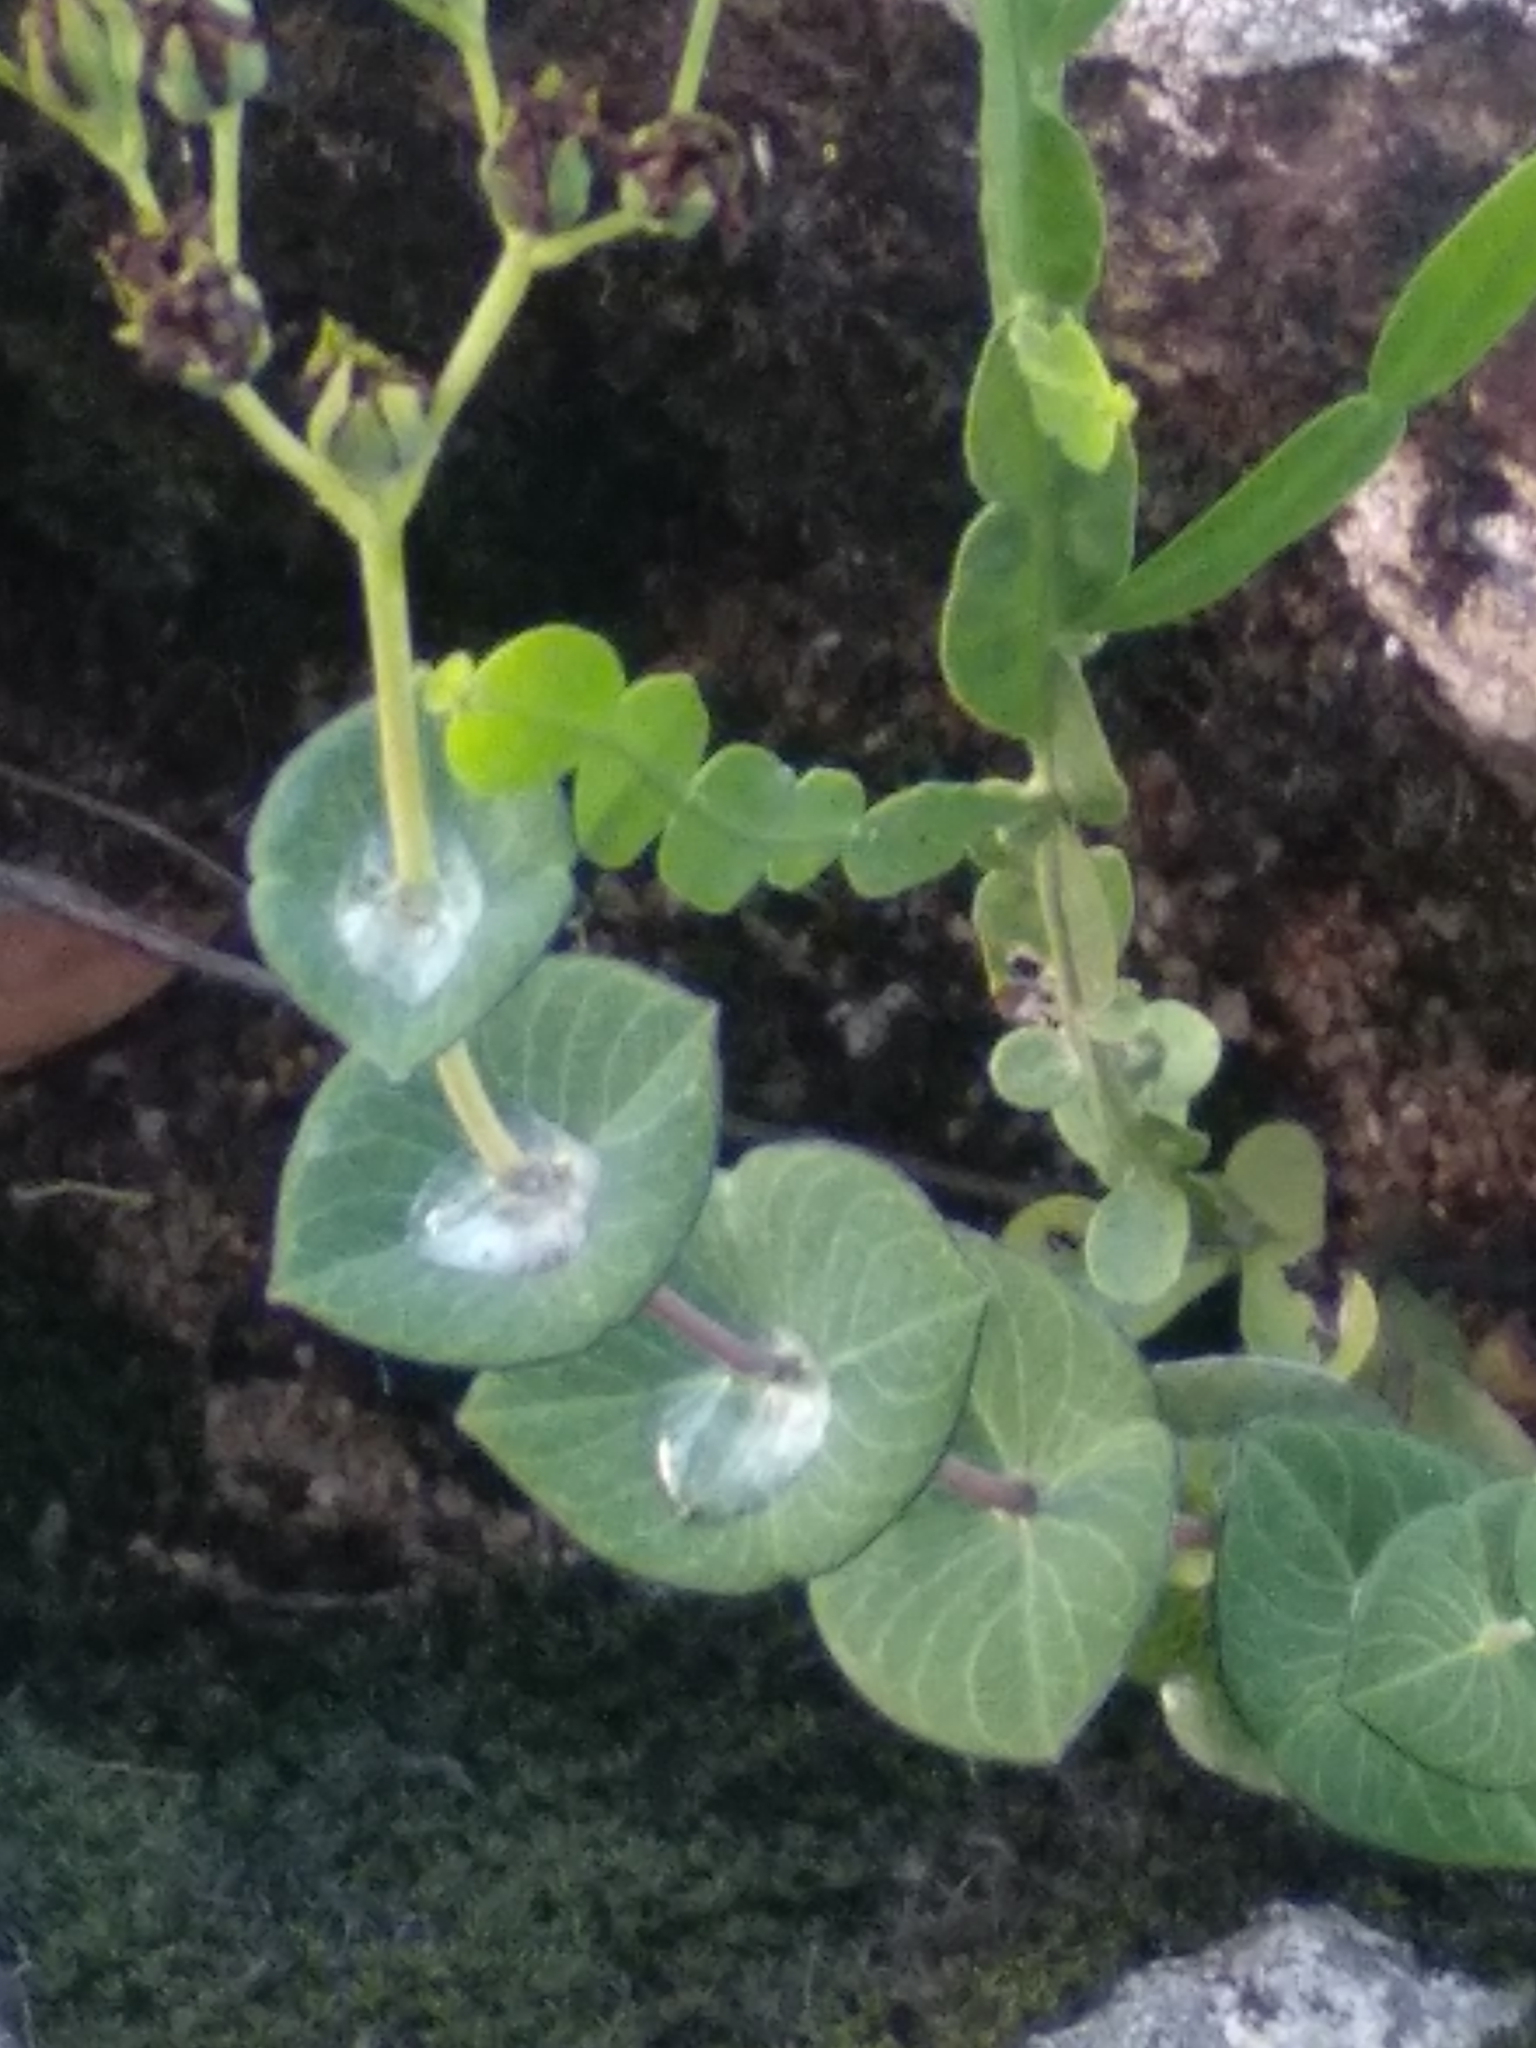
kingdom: Plantae
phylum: Tracheophyta
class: Magnoliopsida
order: Malpighiales
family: Hypericaceae
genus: Hypericum
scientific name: Hypericum connatum
